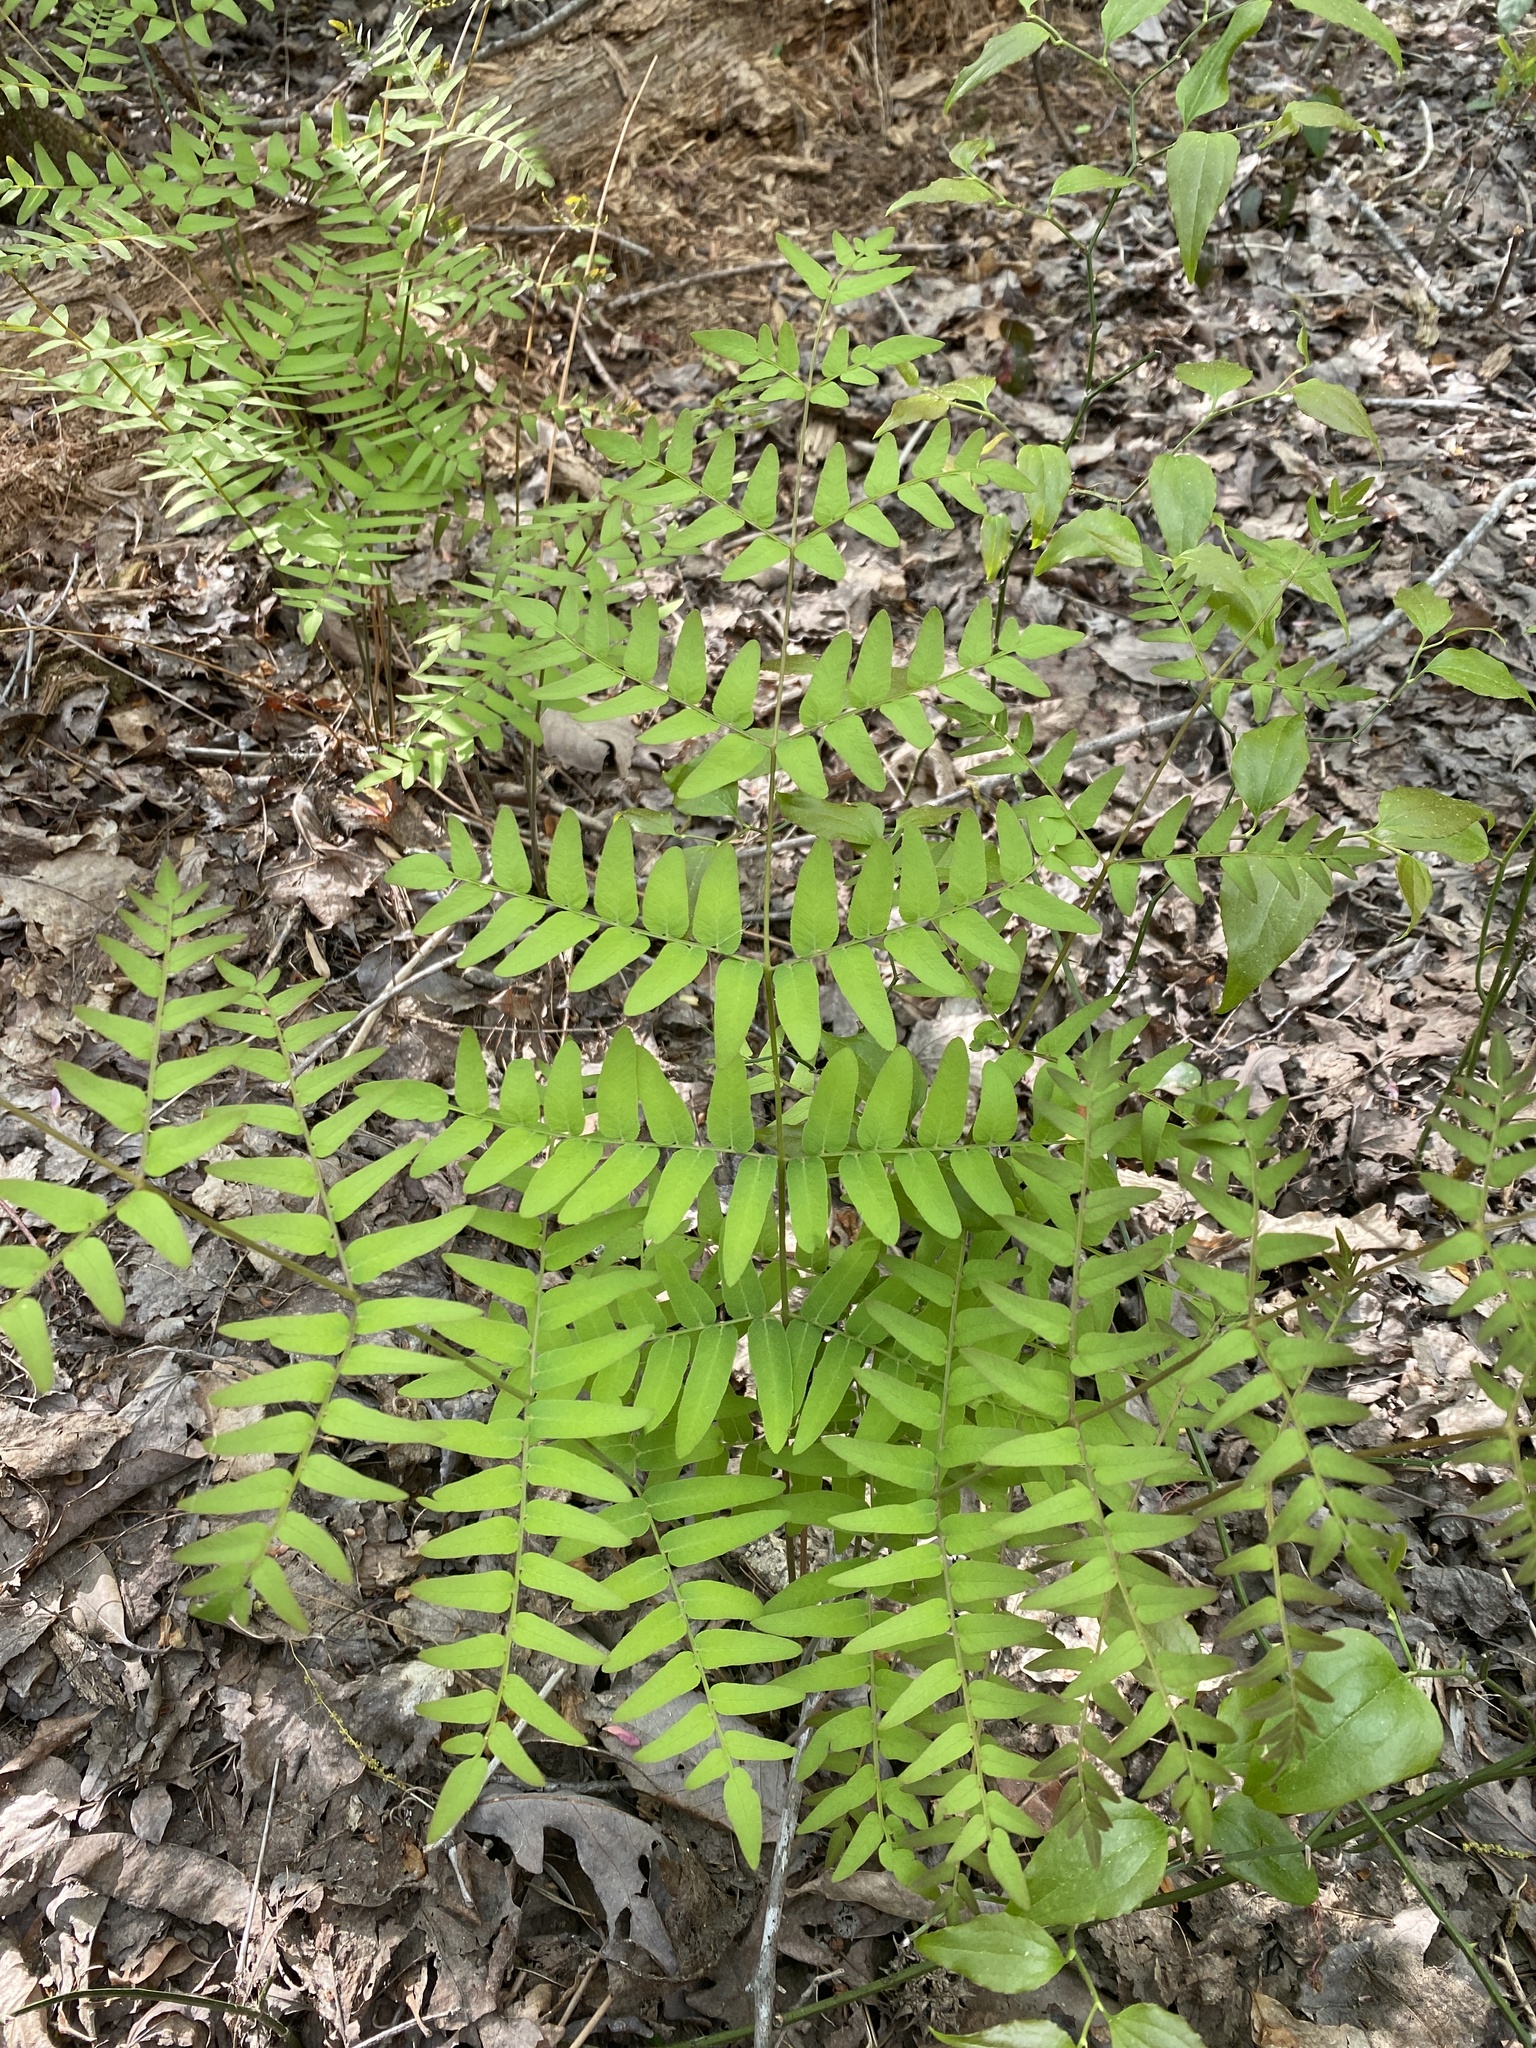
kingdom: Plantae
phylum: Tracheophyta
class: Polypodiopsida
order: Osmundales
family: Osmundaceae
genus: Osmunda
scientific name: Osmunda spectabilis
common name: American royal fern
